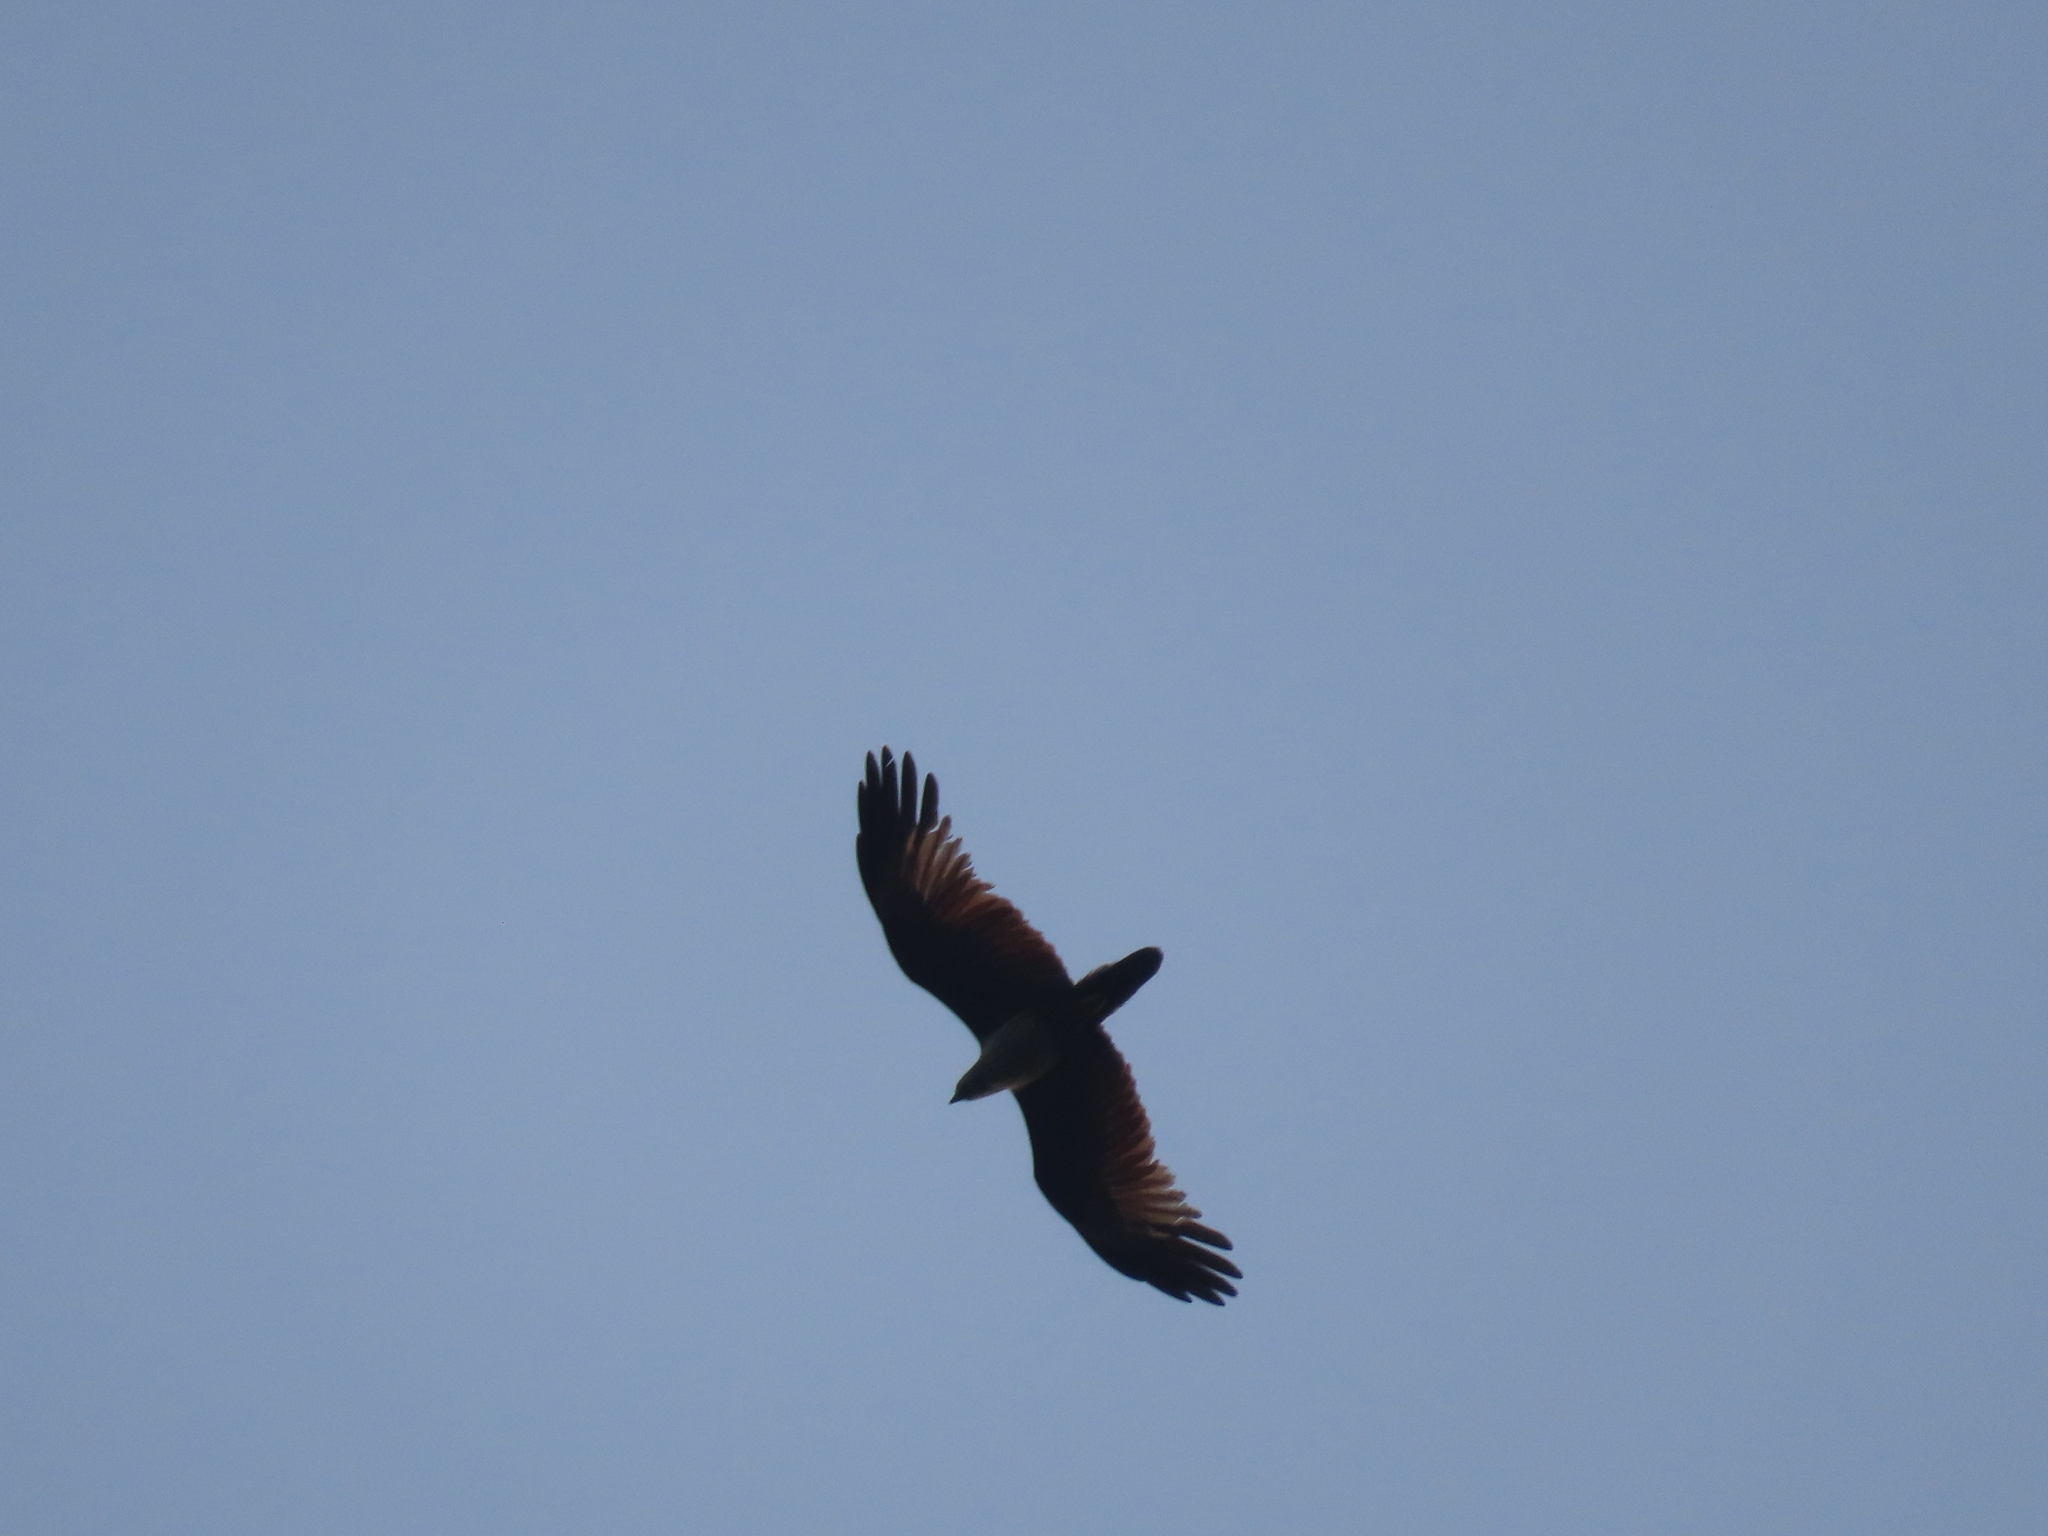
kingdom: Animalia
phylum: Chordata
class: Aves
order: Accipitriformes
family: Accipitridae
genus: Haliastur
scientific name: Haliastur indus
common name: Brahminy kite
